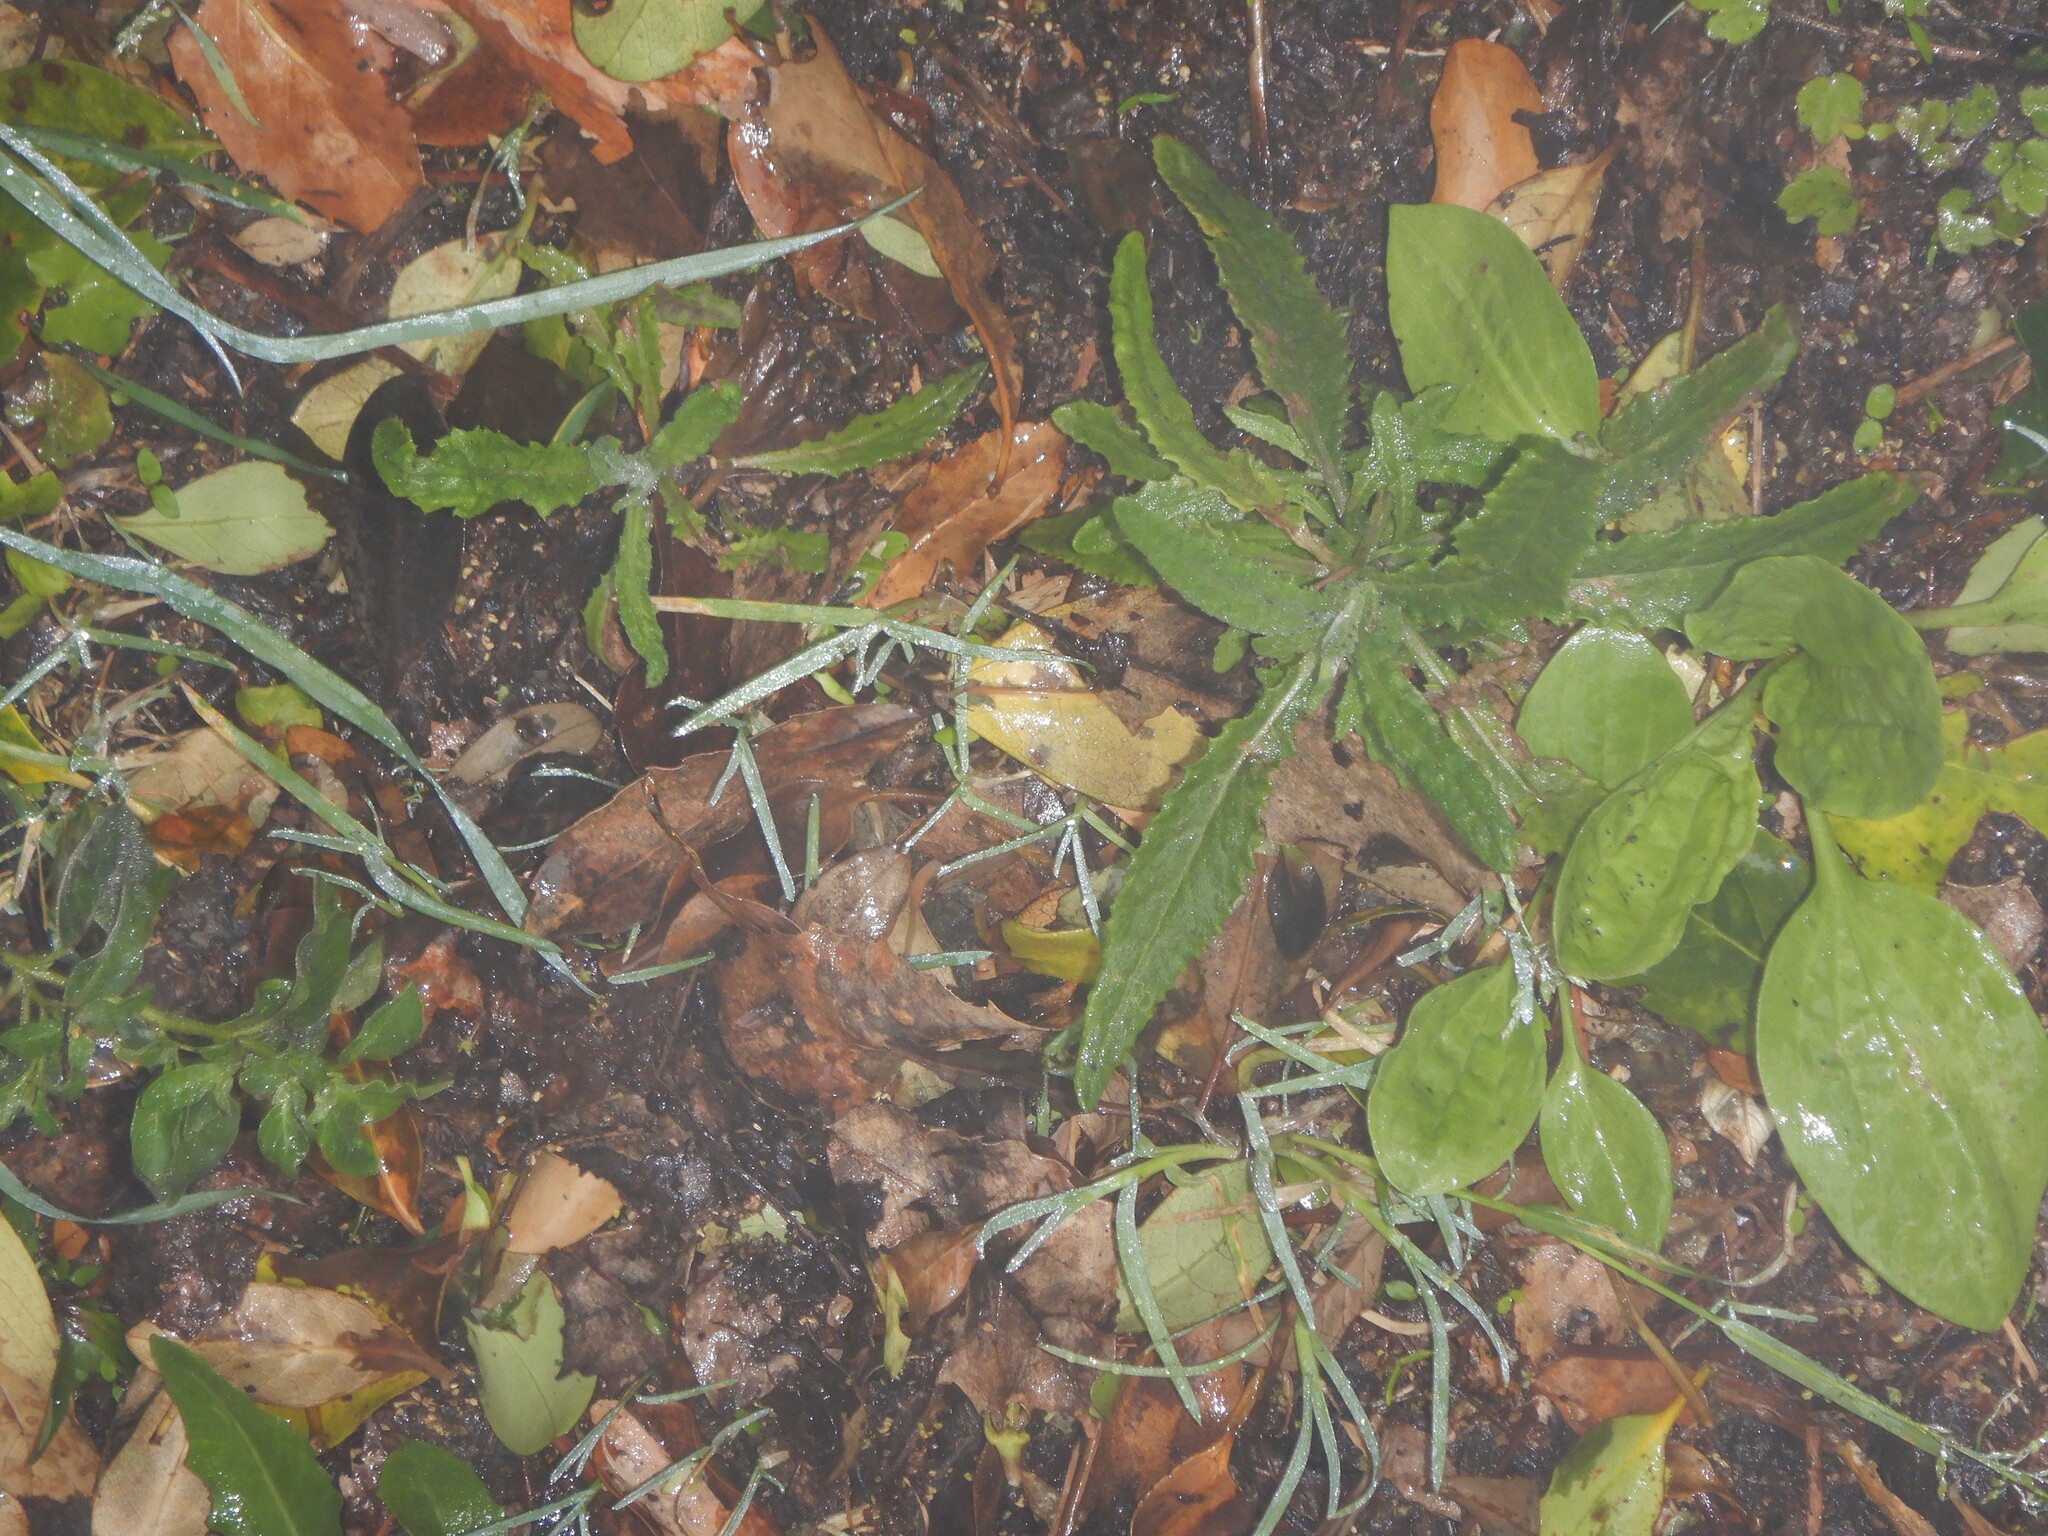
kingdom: Plantae
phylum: Tracheophyta
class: Magnoliopsida
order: Asterales
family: Asteraceae
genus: Senecio
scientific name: Senecio minimus
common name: Toothed fireweed
